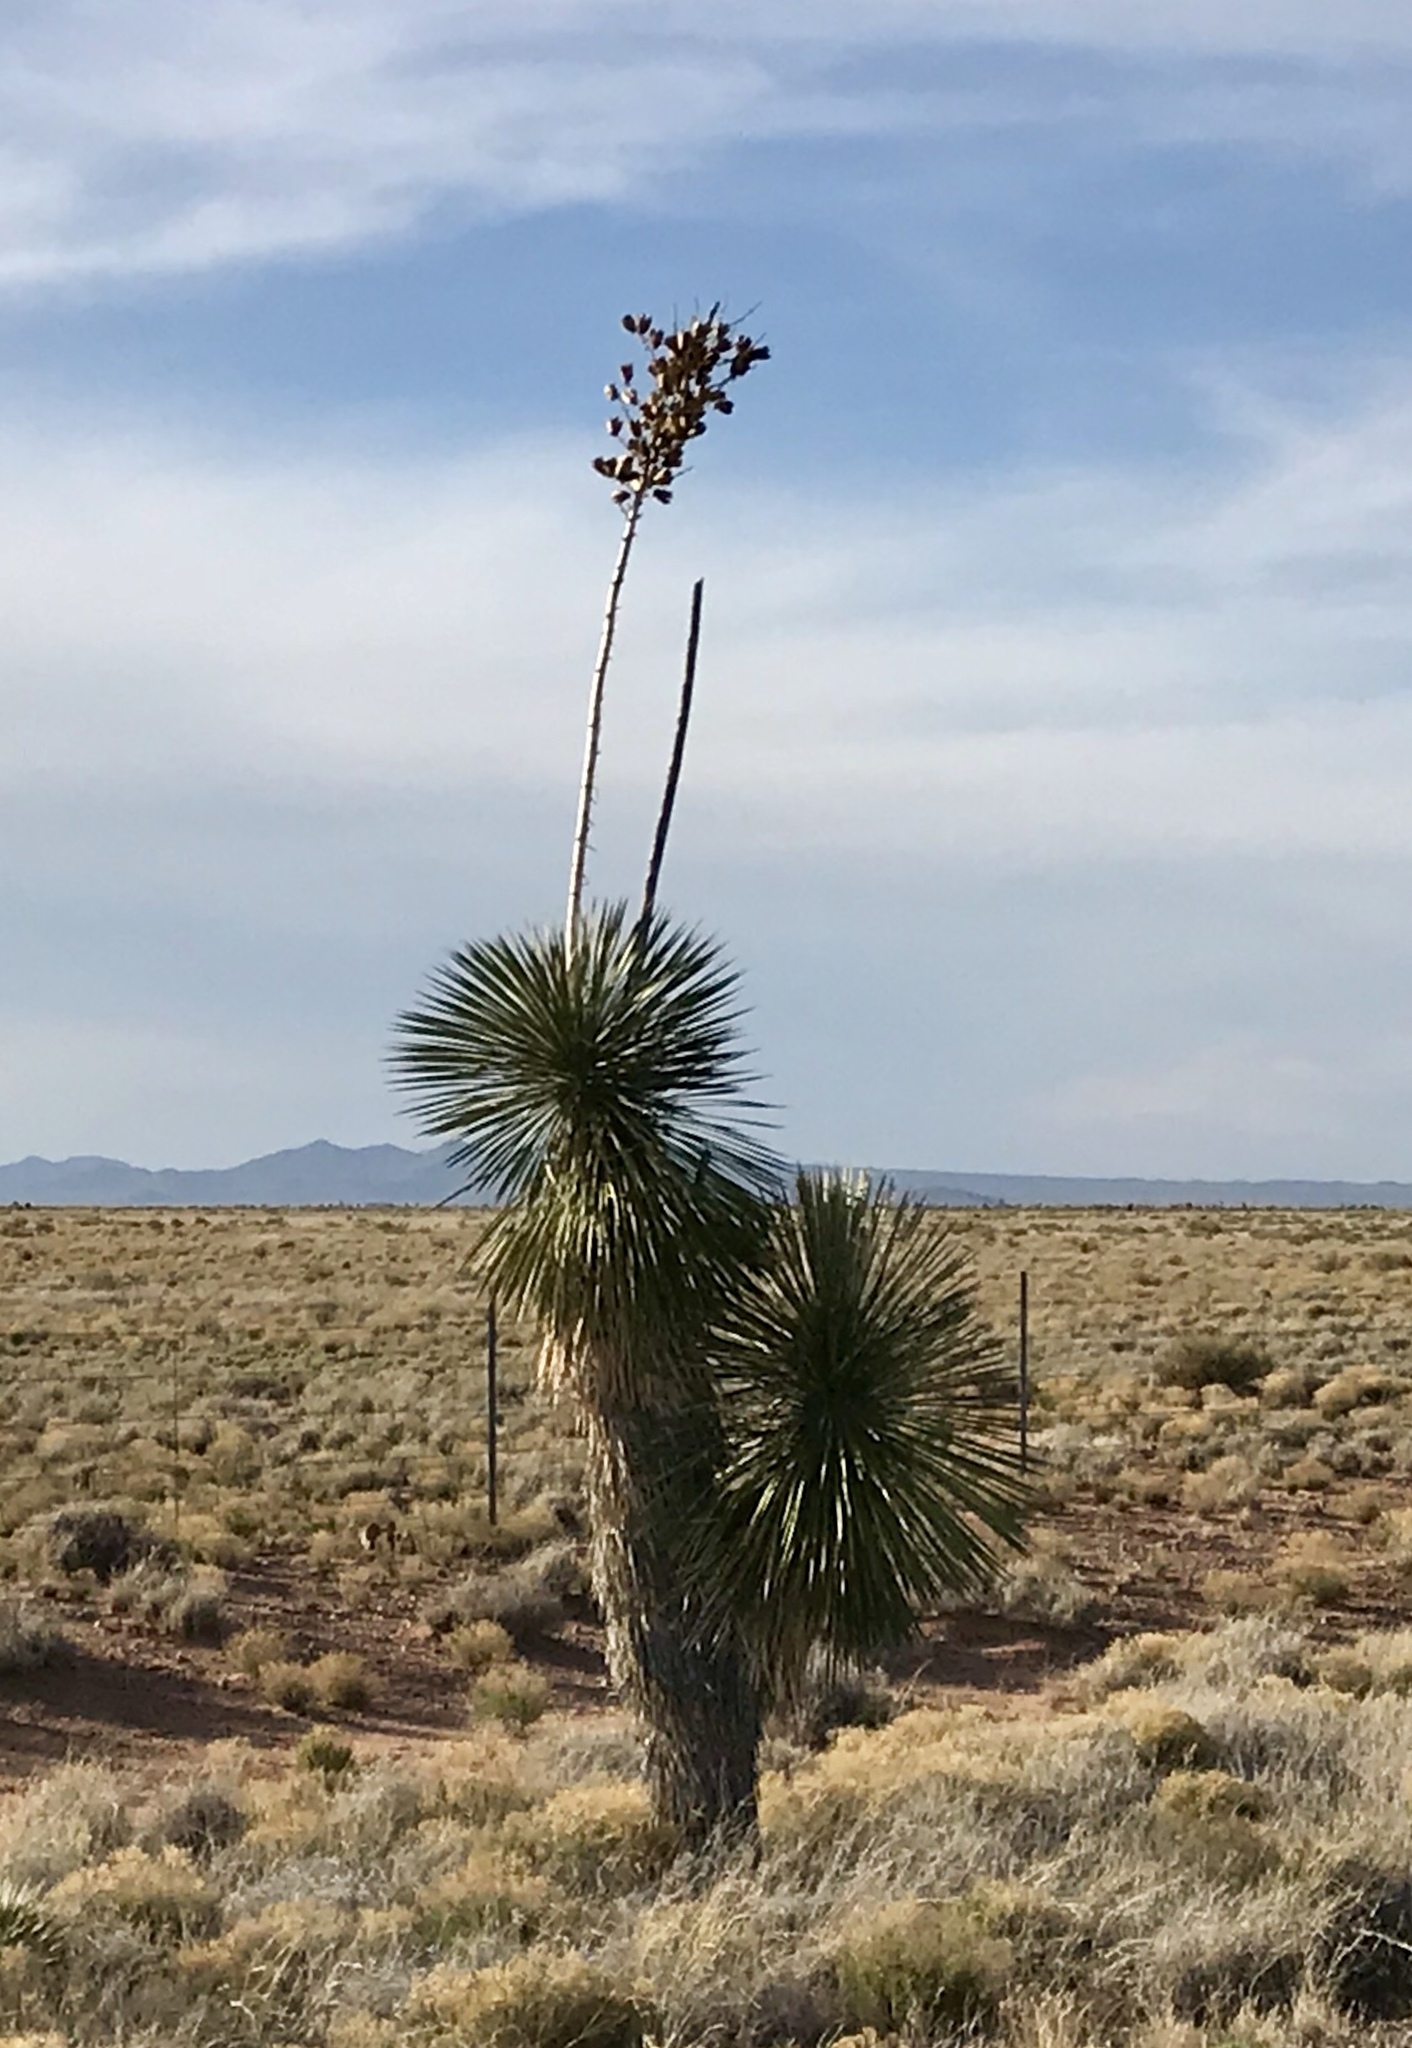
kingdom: Plantae
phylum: Tracheophyta
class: Liliopsida
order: Asparagales
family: Asparagaceae
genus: Yucca
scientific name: Yucca elata
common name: Palmella
